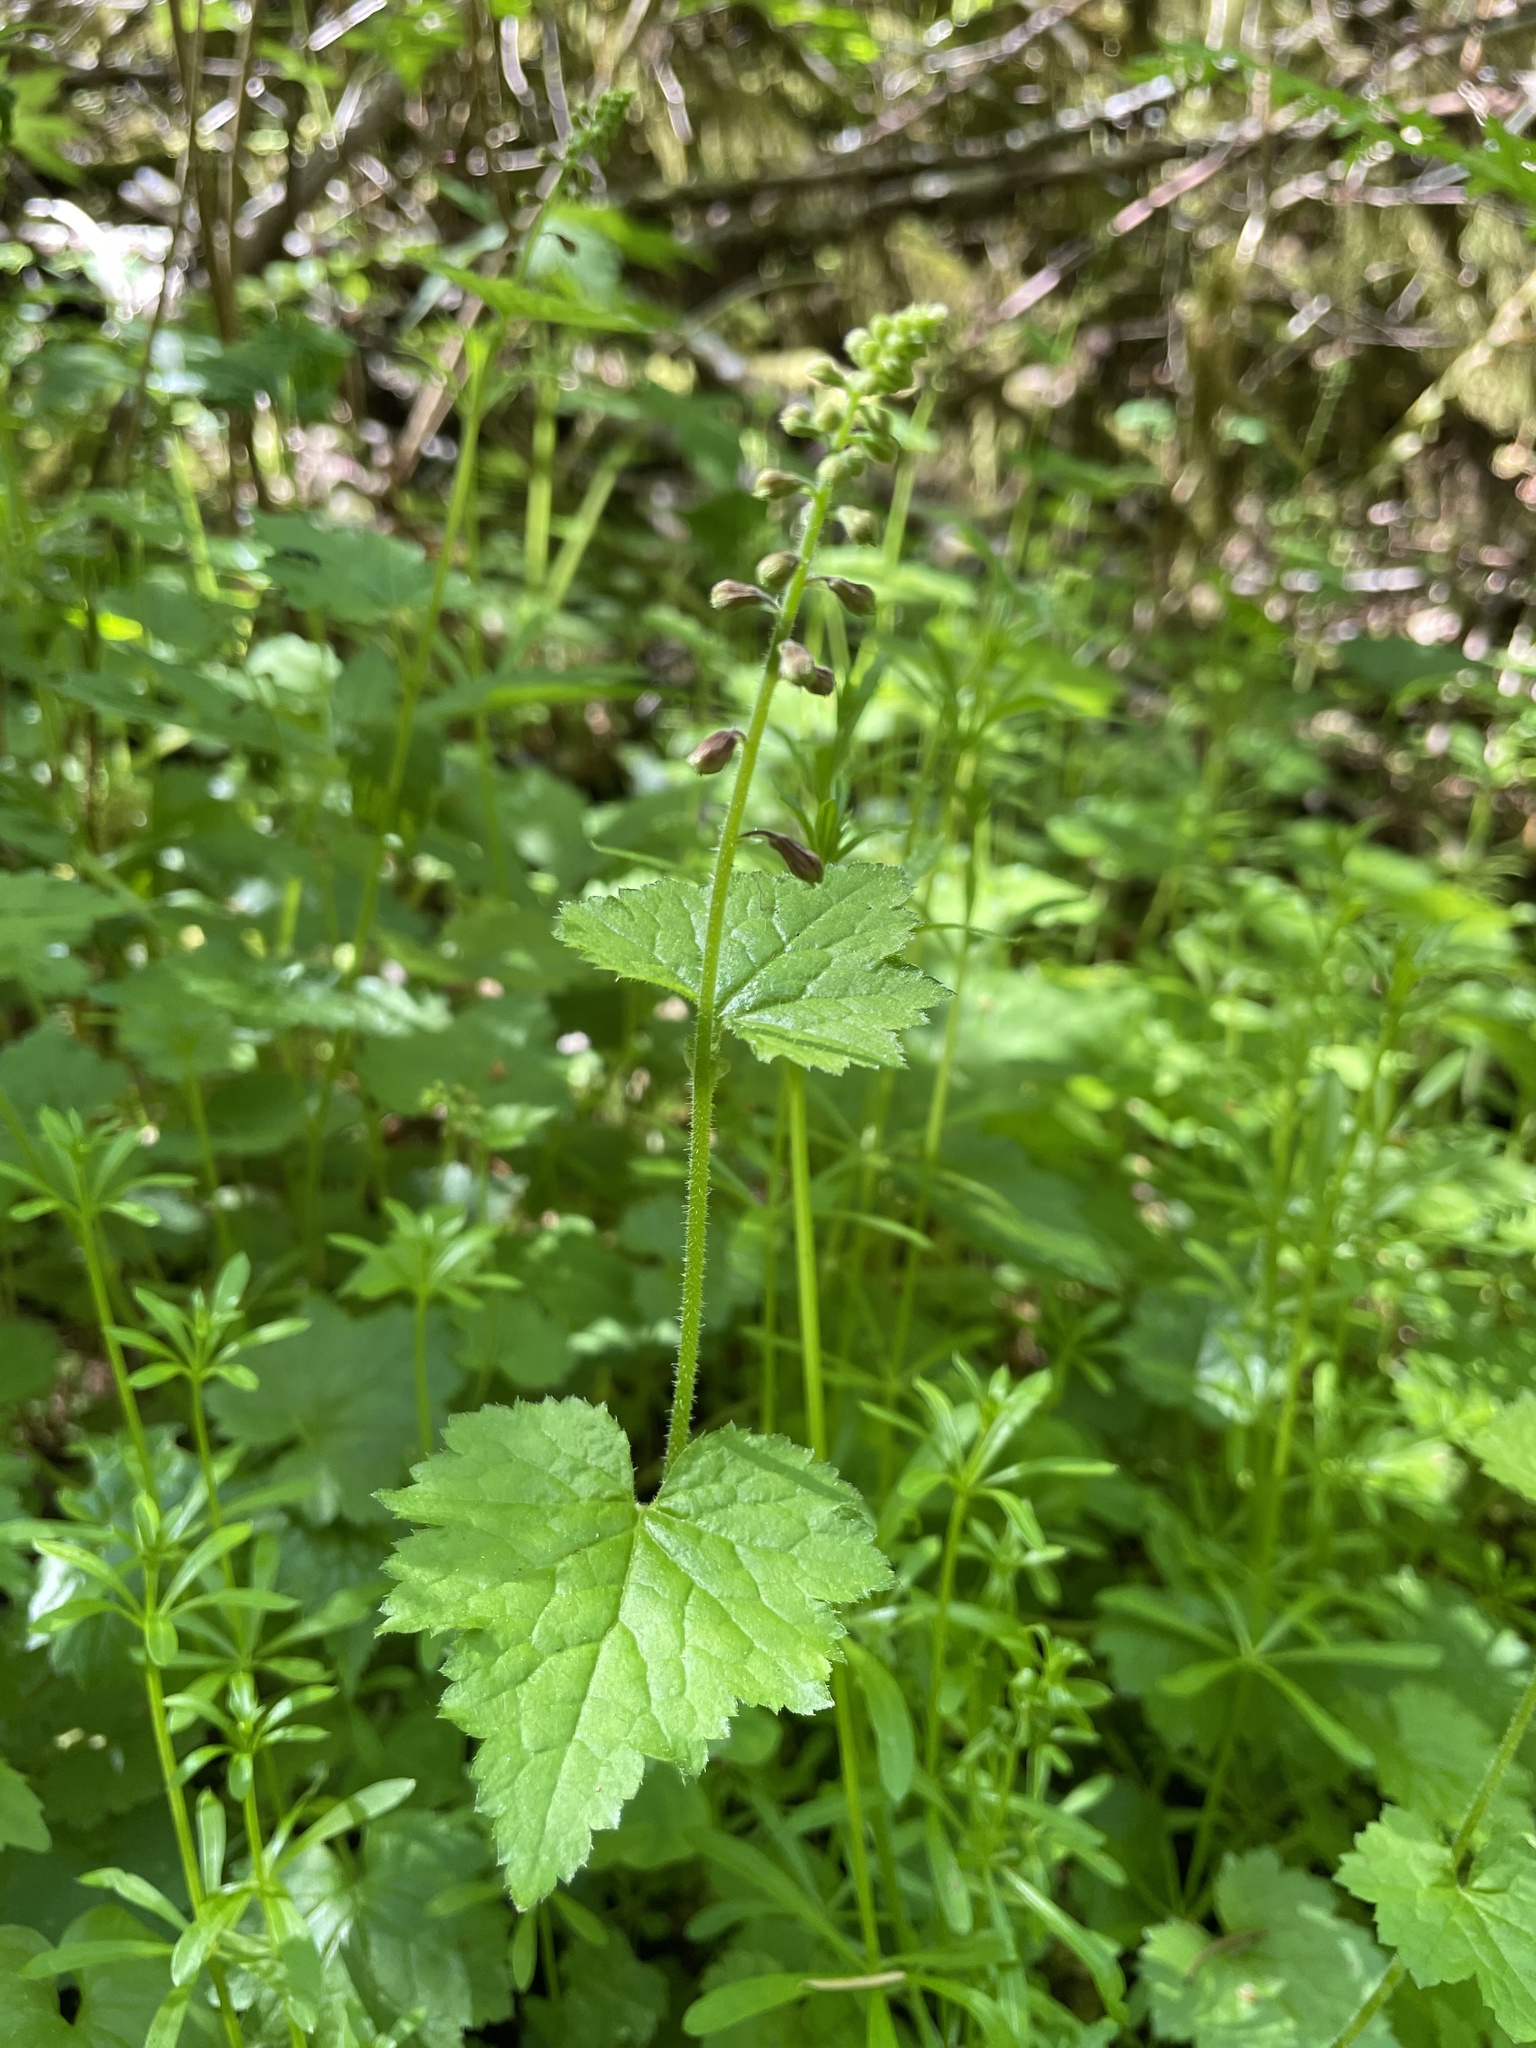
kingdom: Plantae
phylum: Tracheophyta
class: Magnoliopsida
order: Saxifragales
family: Saxifragaceae
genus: Tolmiea
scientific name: Tolmiea menziesii
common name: Pick-a-back-plant
